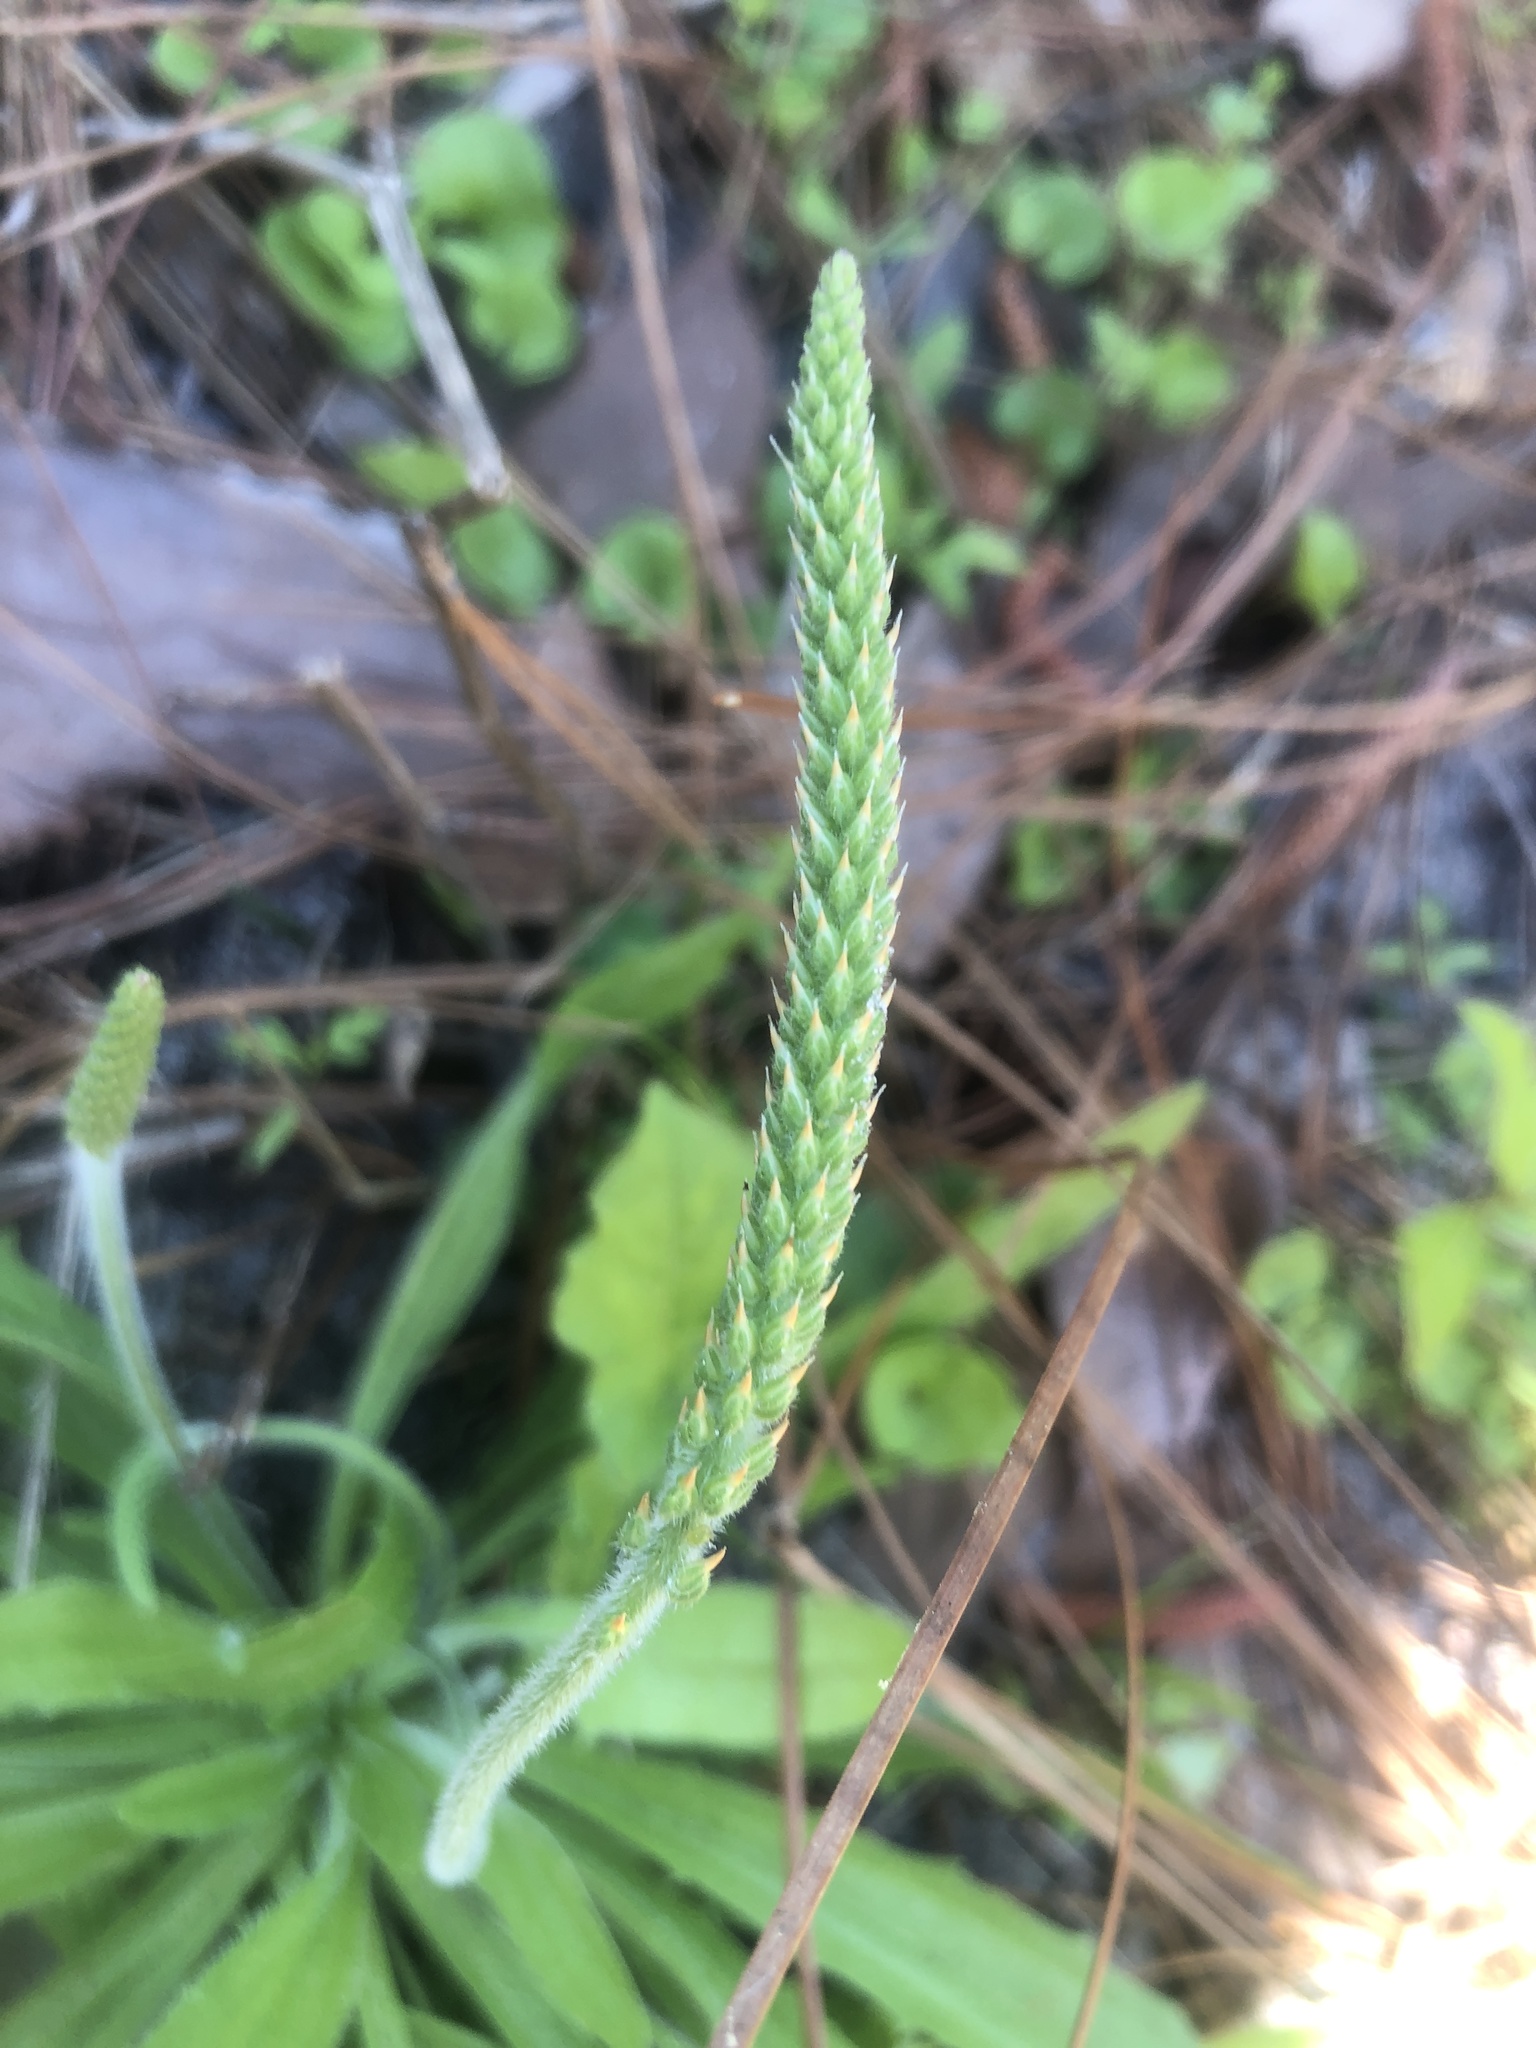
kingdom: Plantae
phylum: Tracheophyta
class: Magnoliopsida
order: Lamiales
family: Plantaginaceae
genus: Plantago
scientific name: Plantago virginica
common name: Hoary plantain
